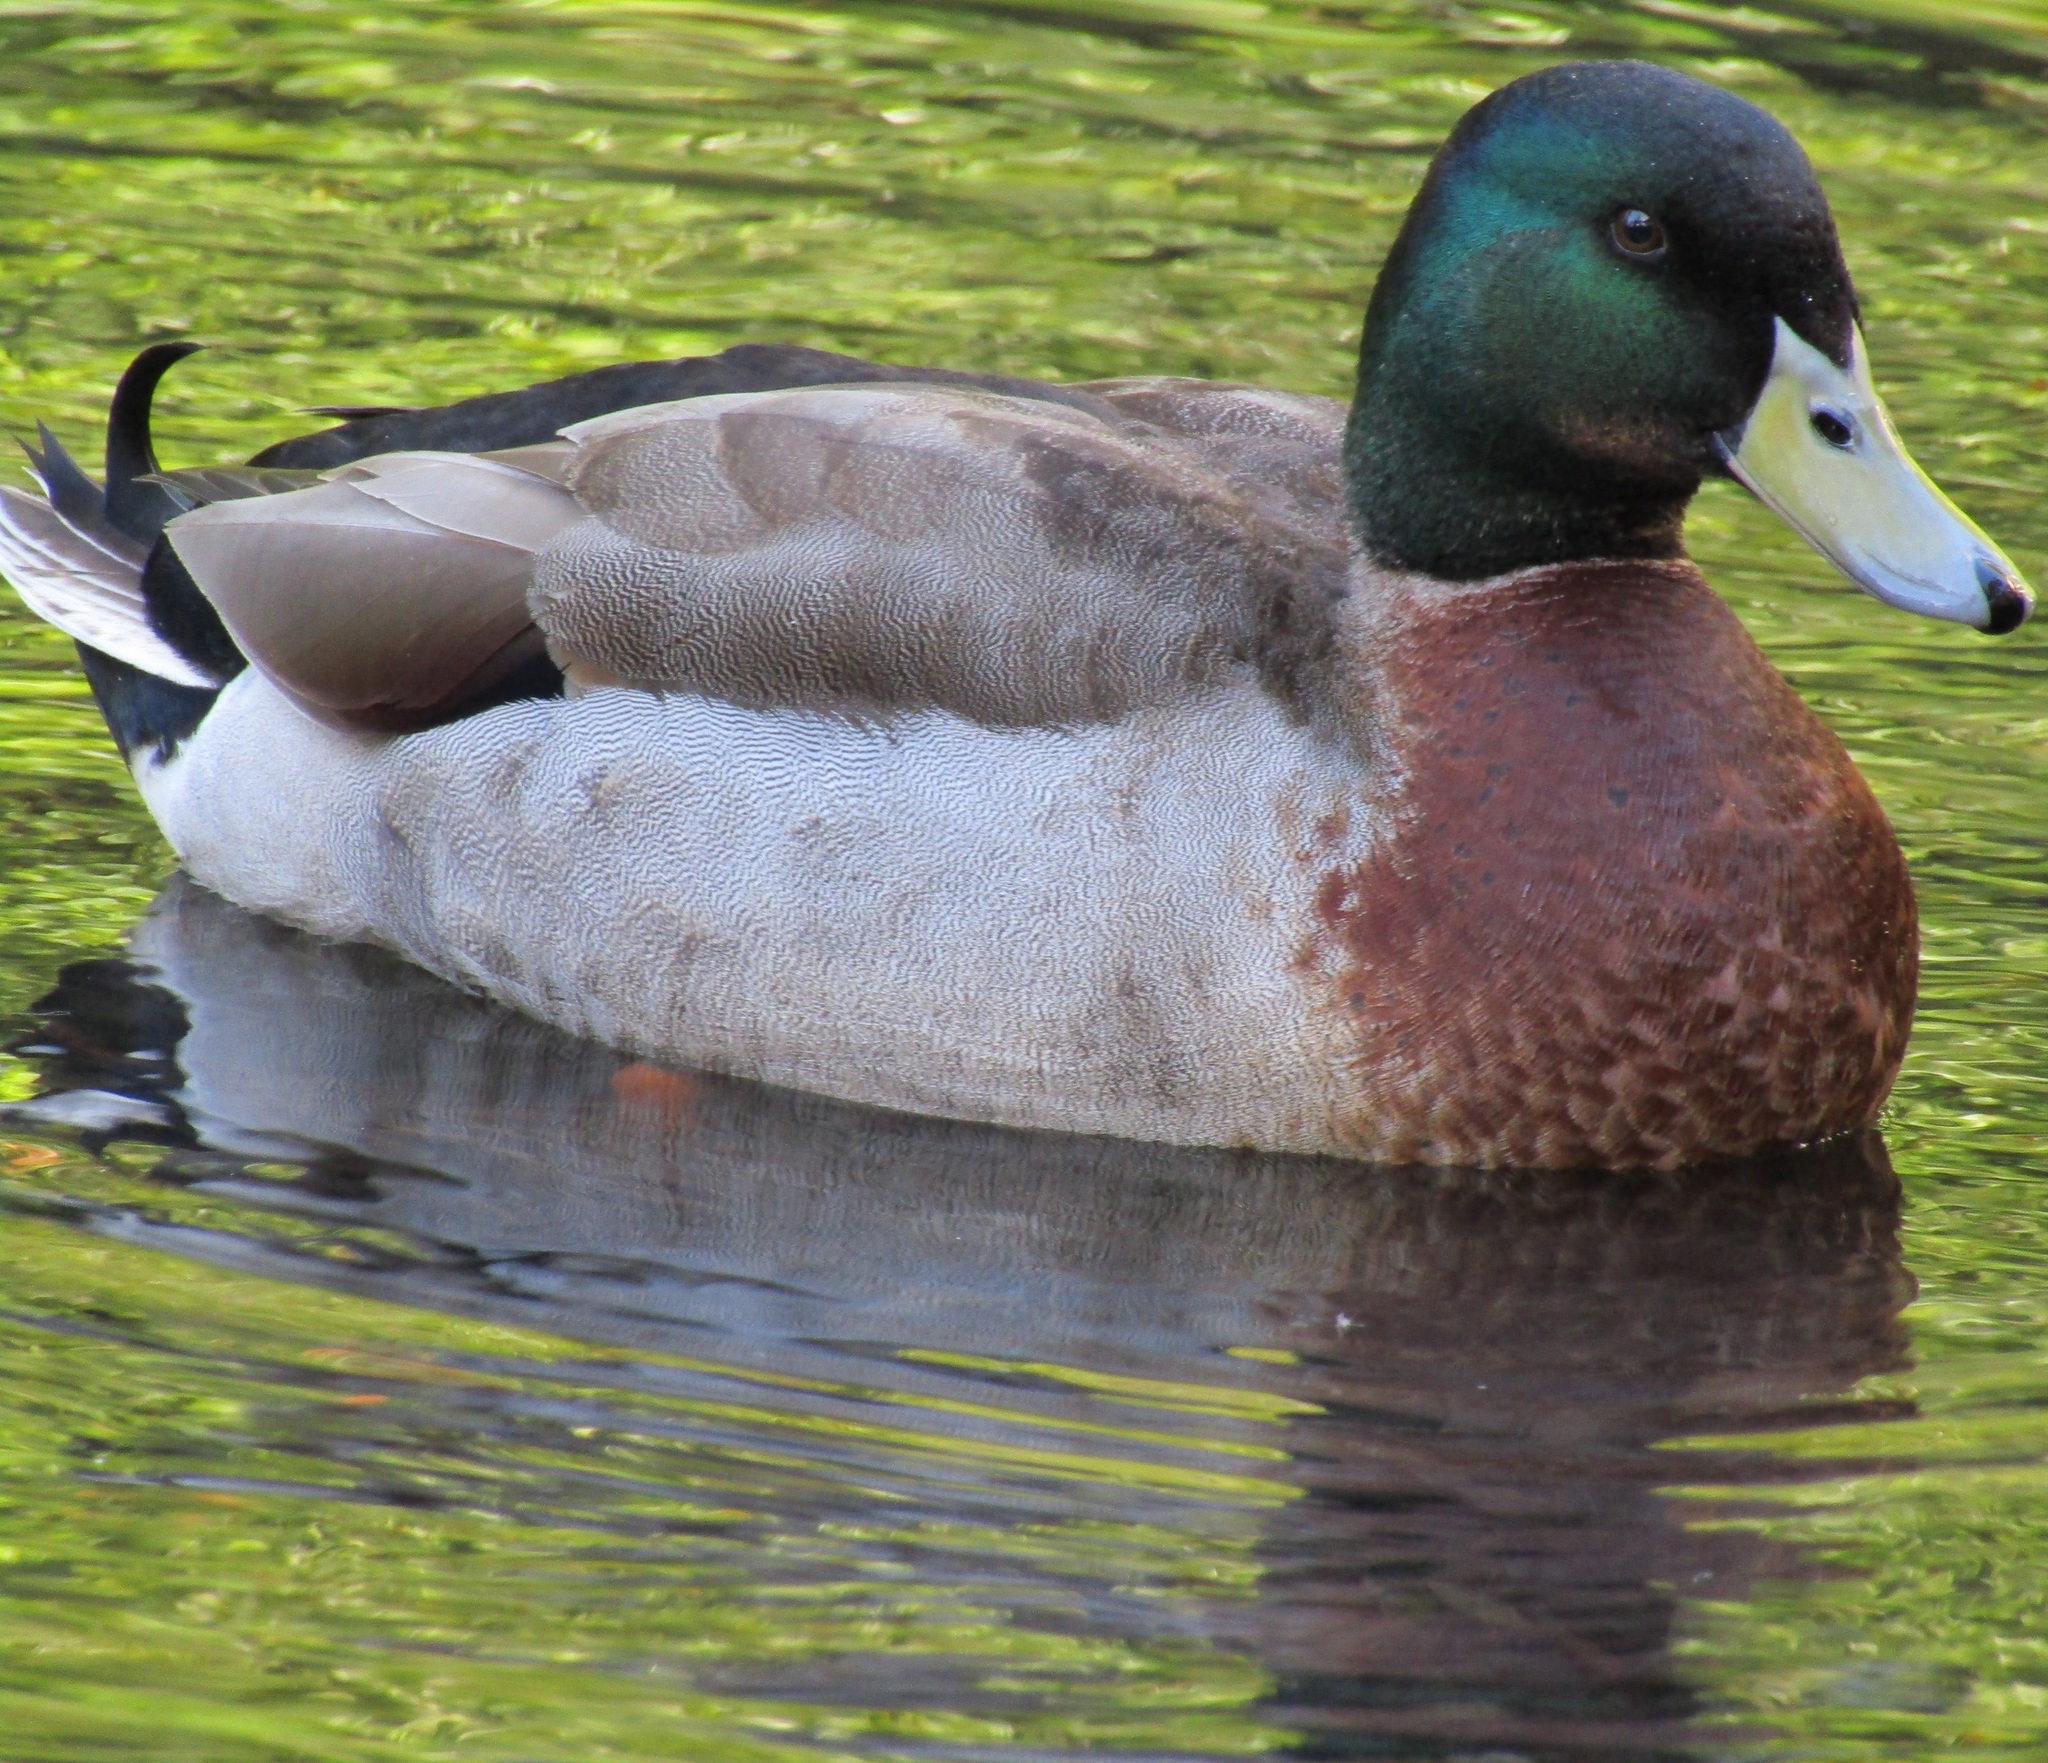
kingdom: Animalia
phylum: Chordata
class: Aves
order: Anseriformes
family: Anatidae
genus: Anas
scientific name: Anas
